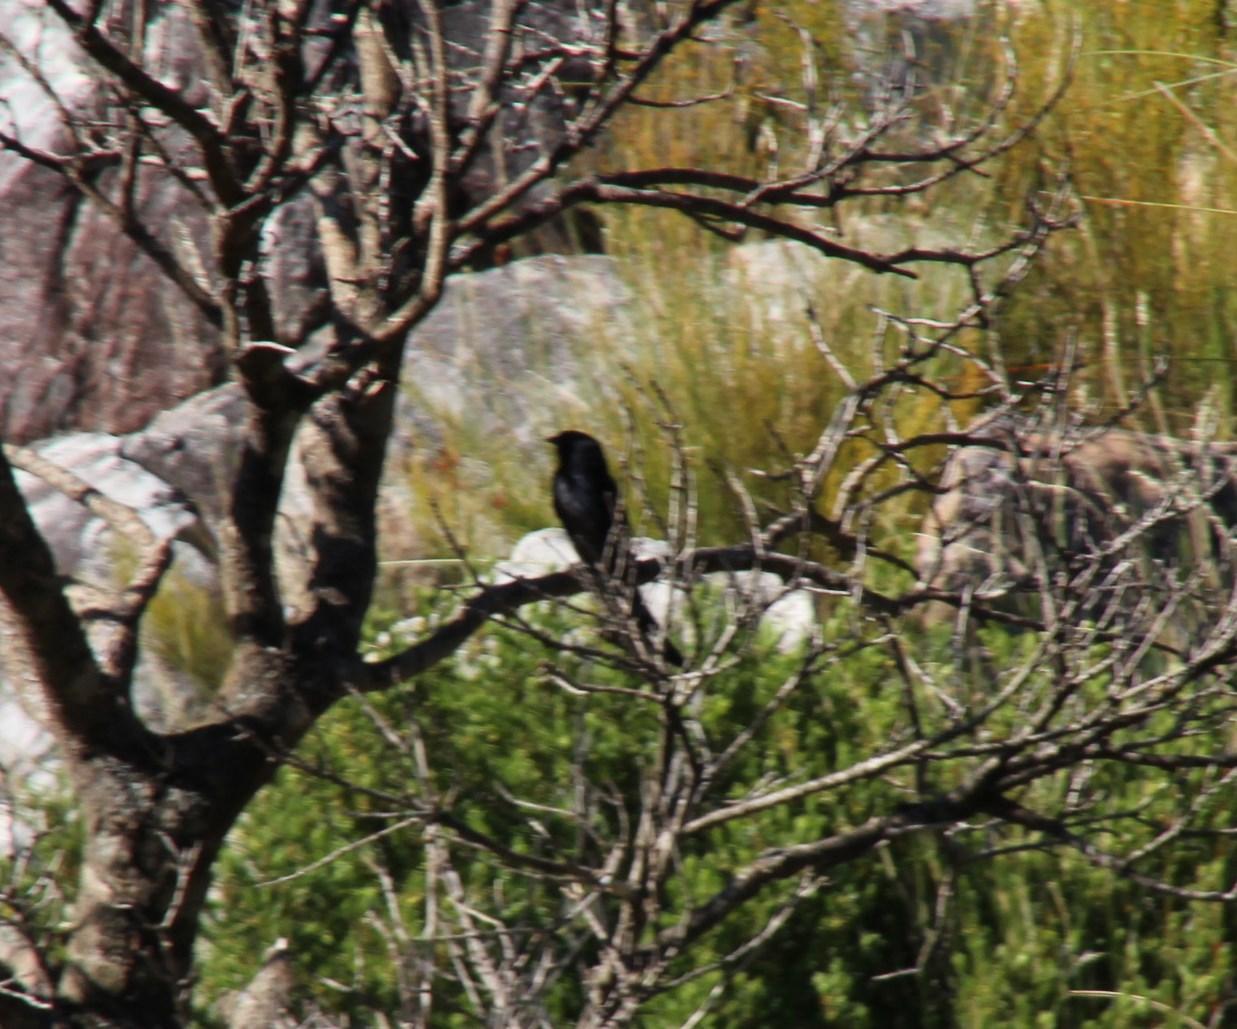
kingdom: Animalia
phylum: Chordata
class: Aves
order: Passeriformes
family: Dicruridae
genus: Dicrurus
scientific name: Dicrurus adsimilis
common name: Fork-tailed drongo
